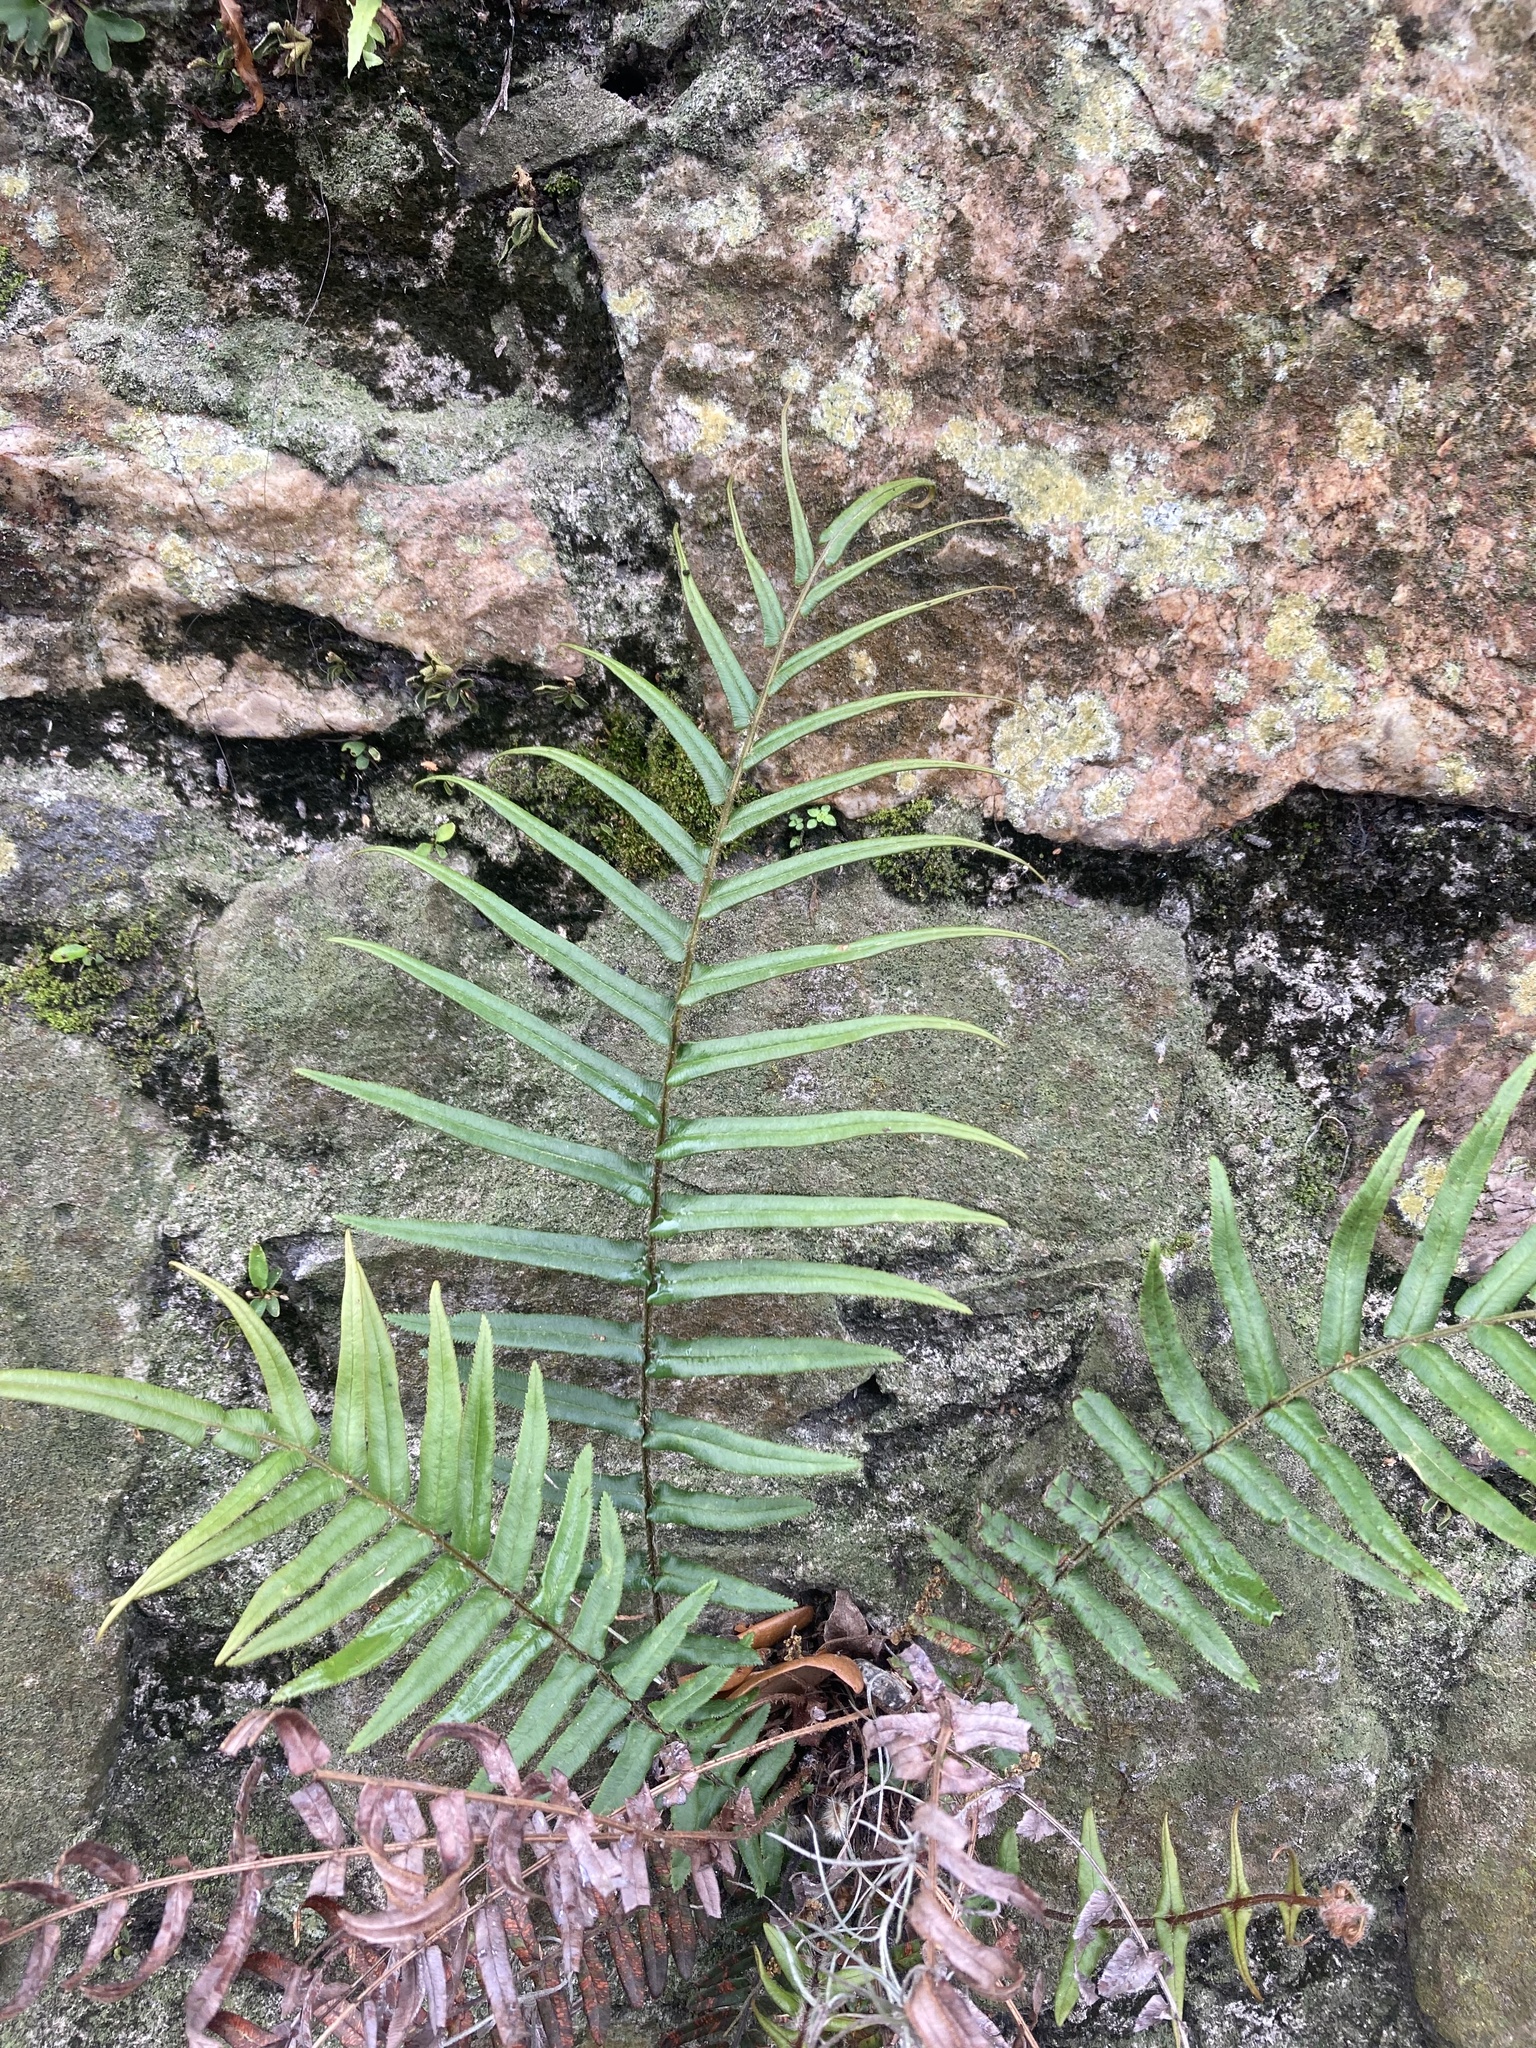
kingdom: Plantae
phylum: Tracheophyta
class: Polypodiopsida
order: Polypodiales
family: Pteridaceae
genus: Pteris
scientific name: Pteris vittata
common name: Ladder brake
